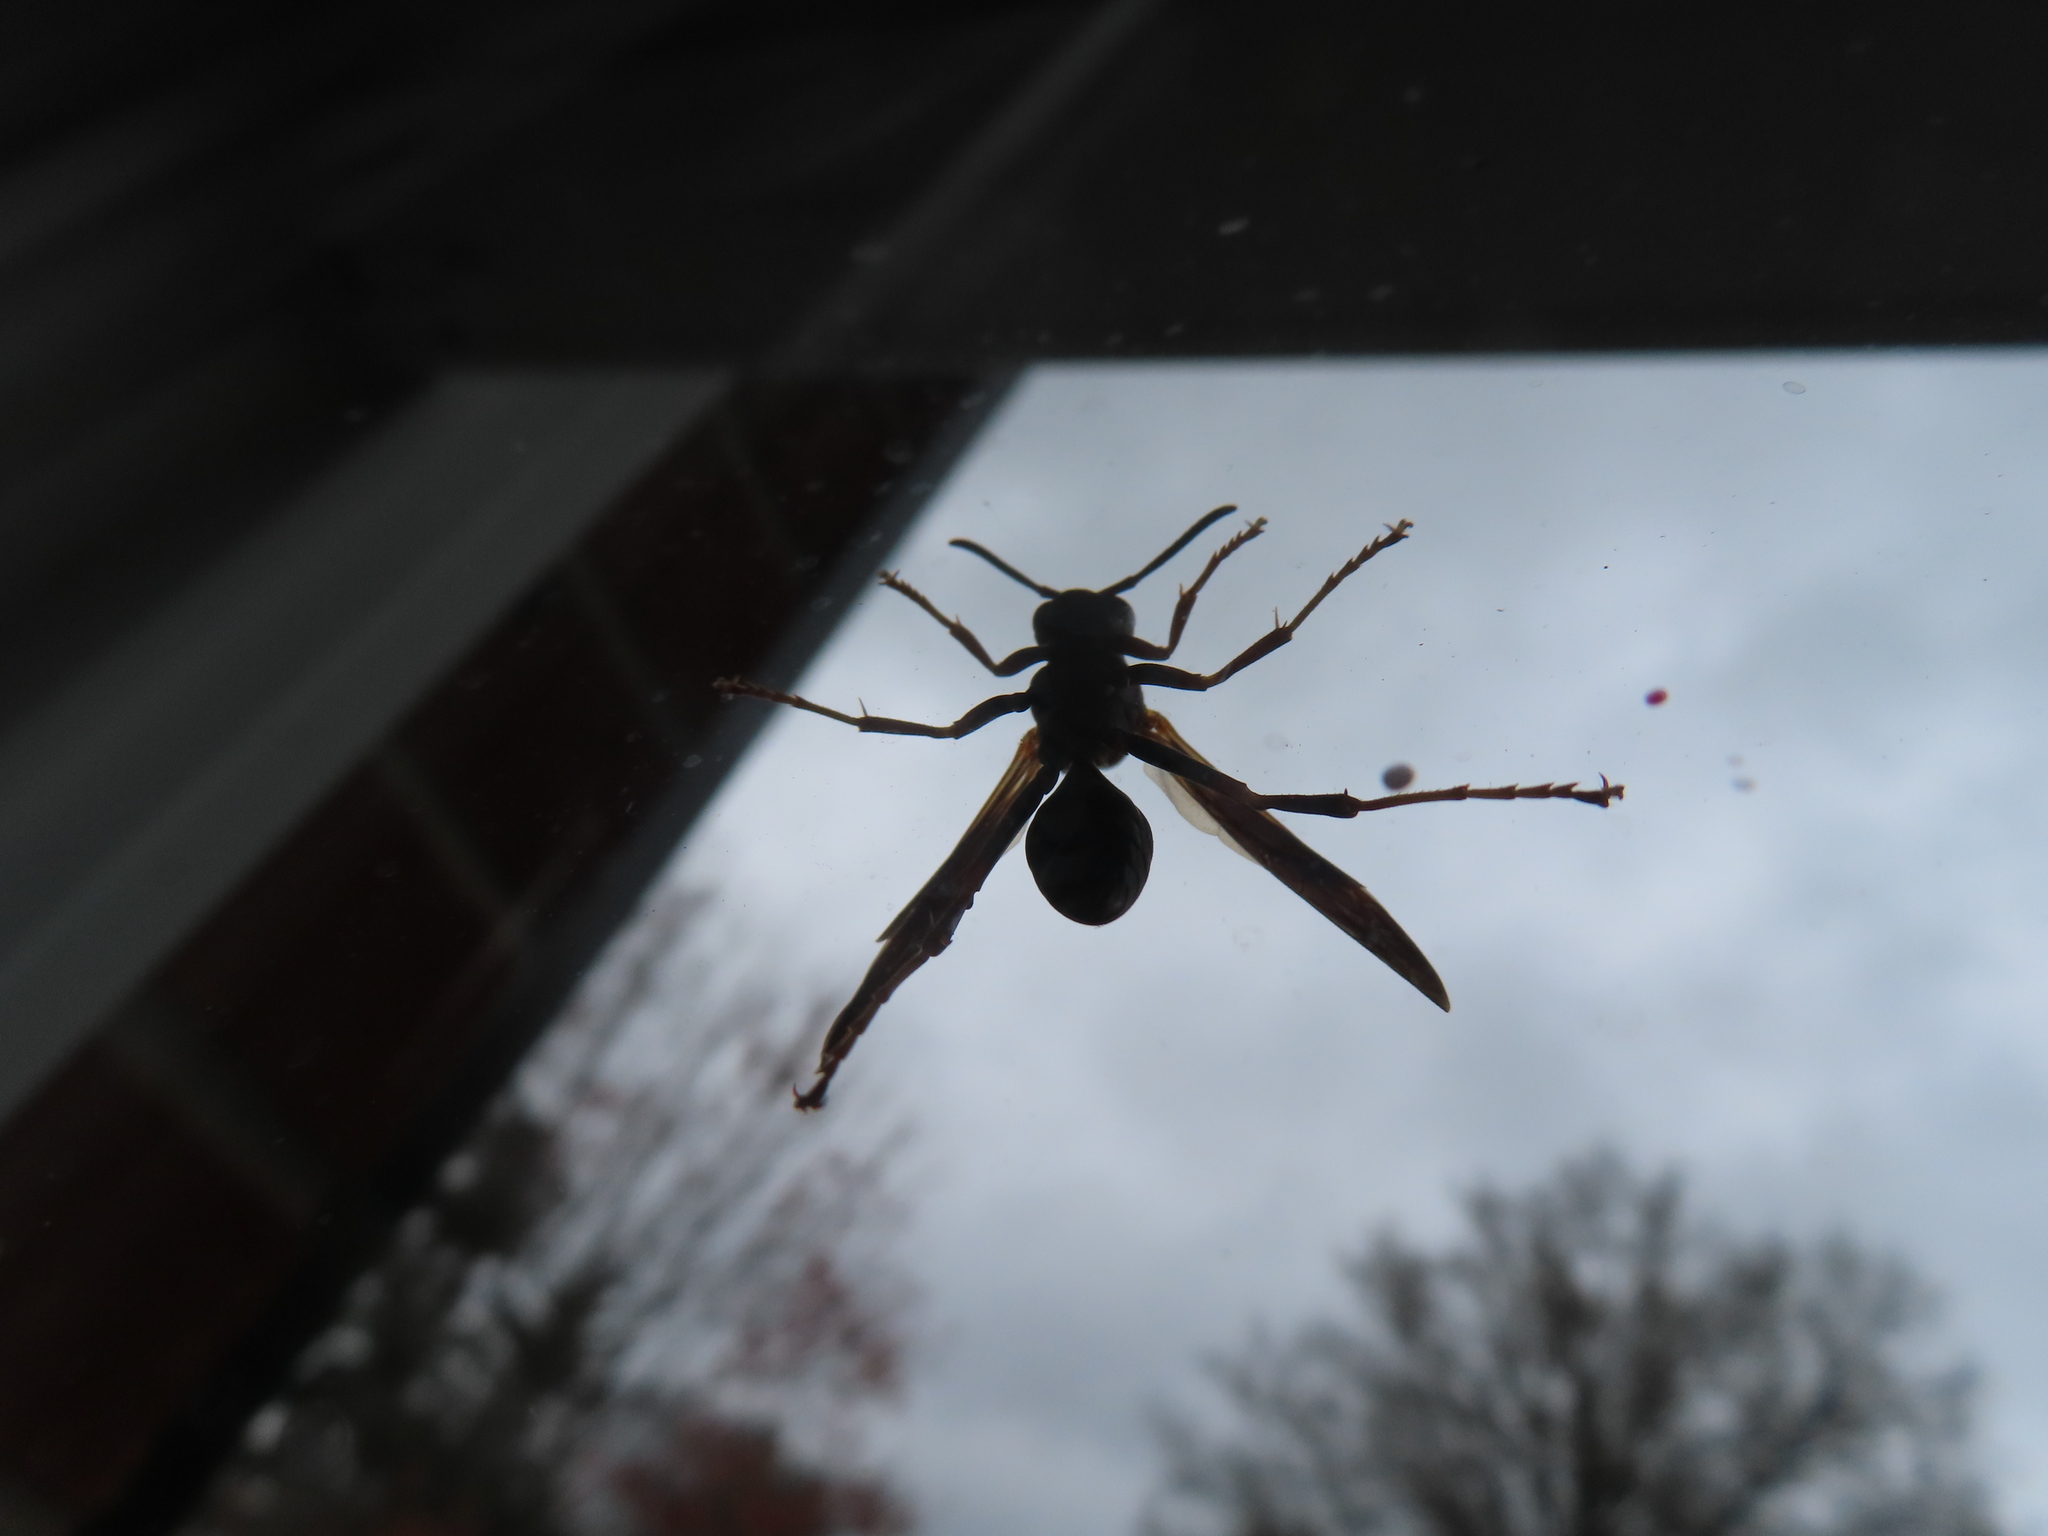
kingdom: Animalia
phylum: Arthropoda
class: Insecta
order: Hymenoptera
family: Vespidae
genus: Fuscopolistes
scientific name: Fuscopolistes
